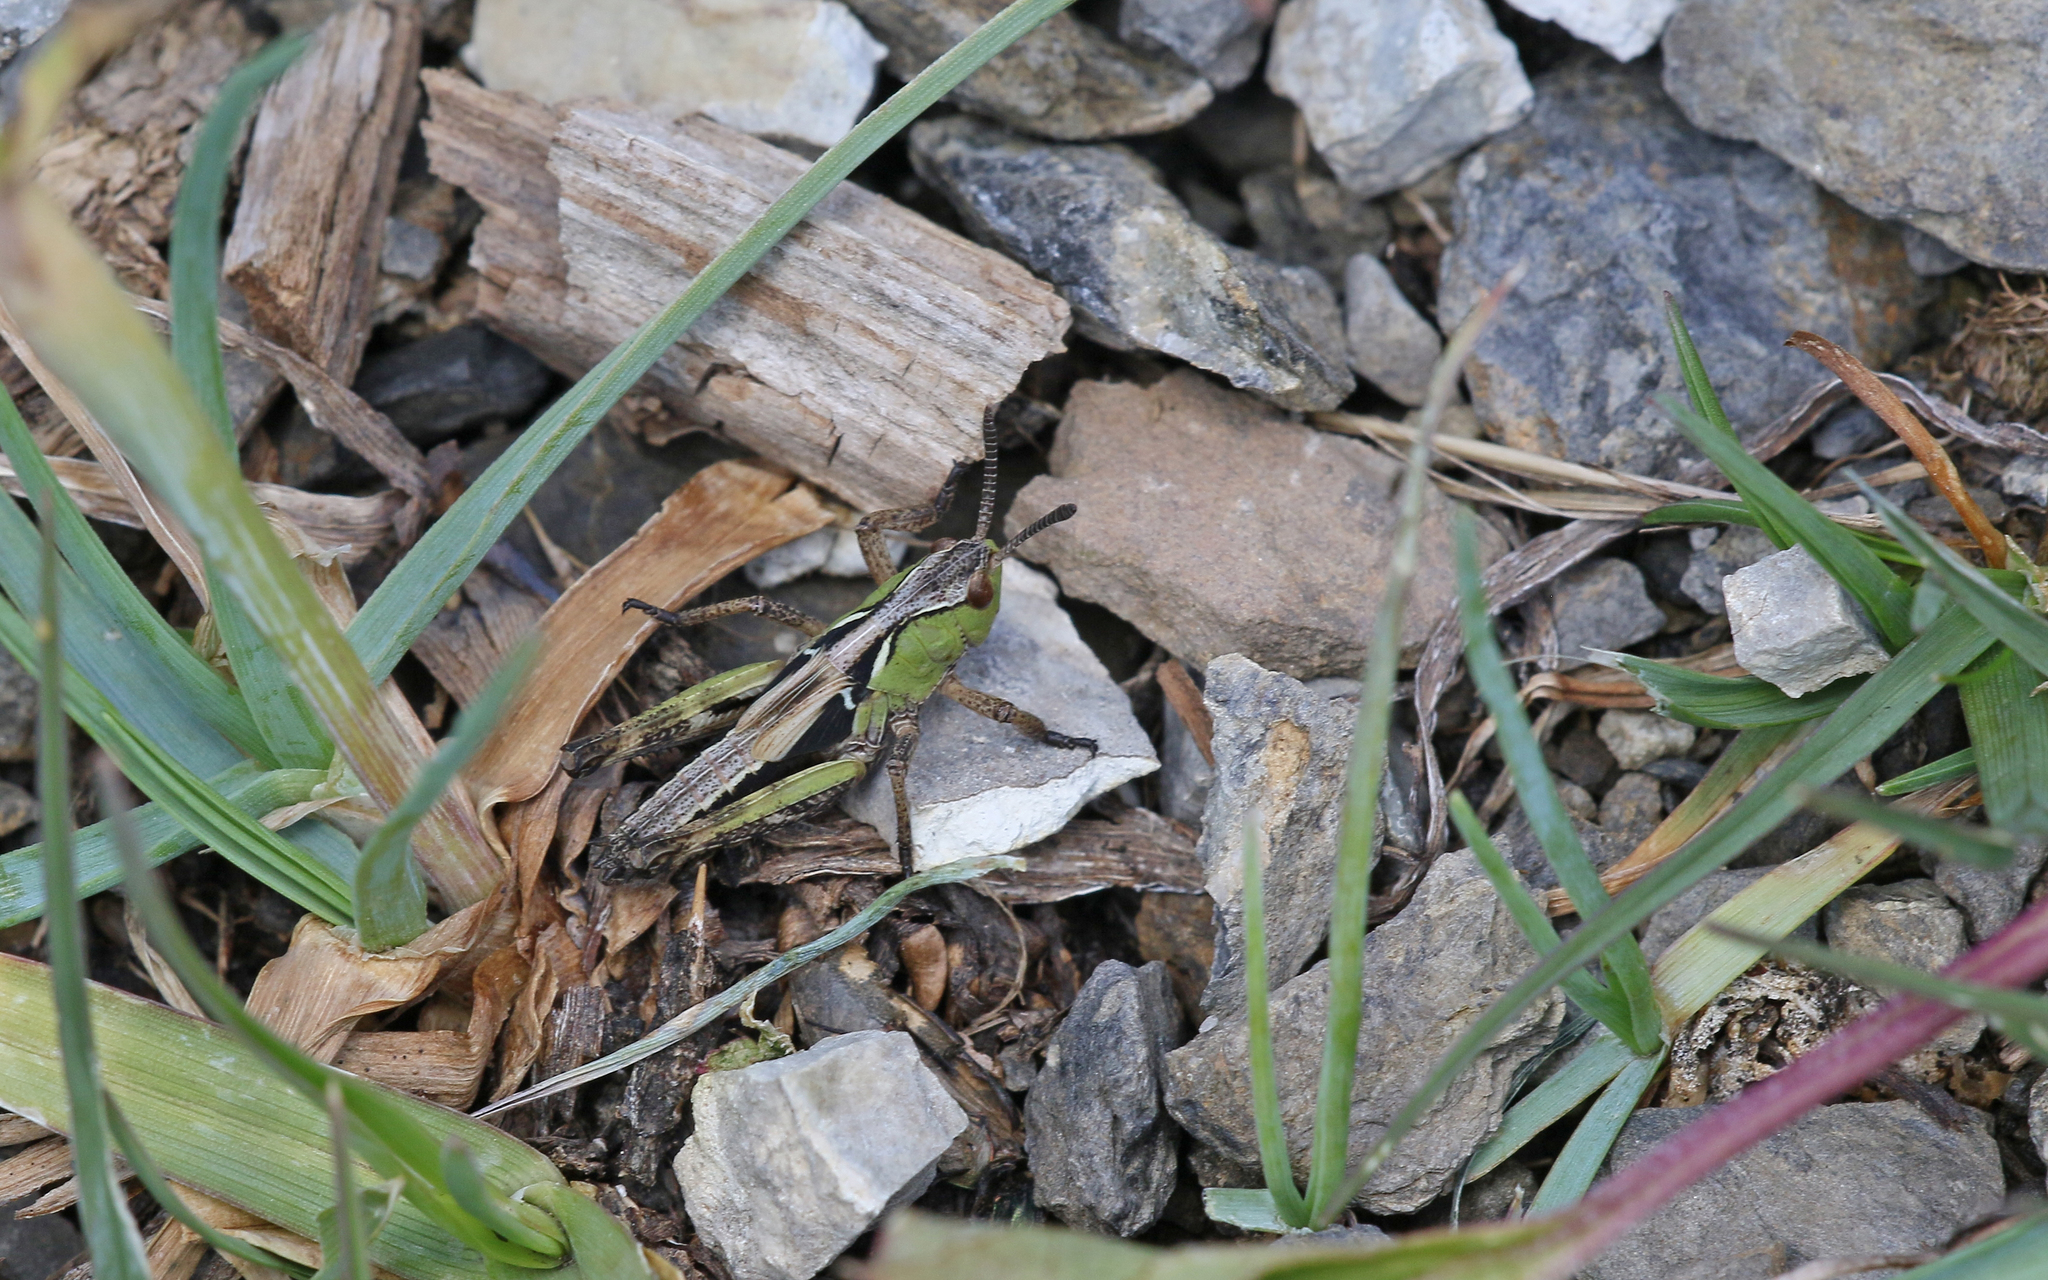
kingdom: Animalia
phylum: Arthropoda
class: Insecta
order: Orthoptera
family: Acrididae
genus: Gomphocerus
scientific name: Gomphocerus sibiricus
